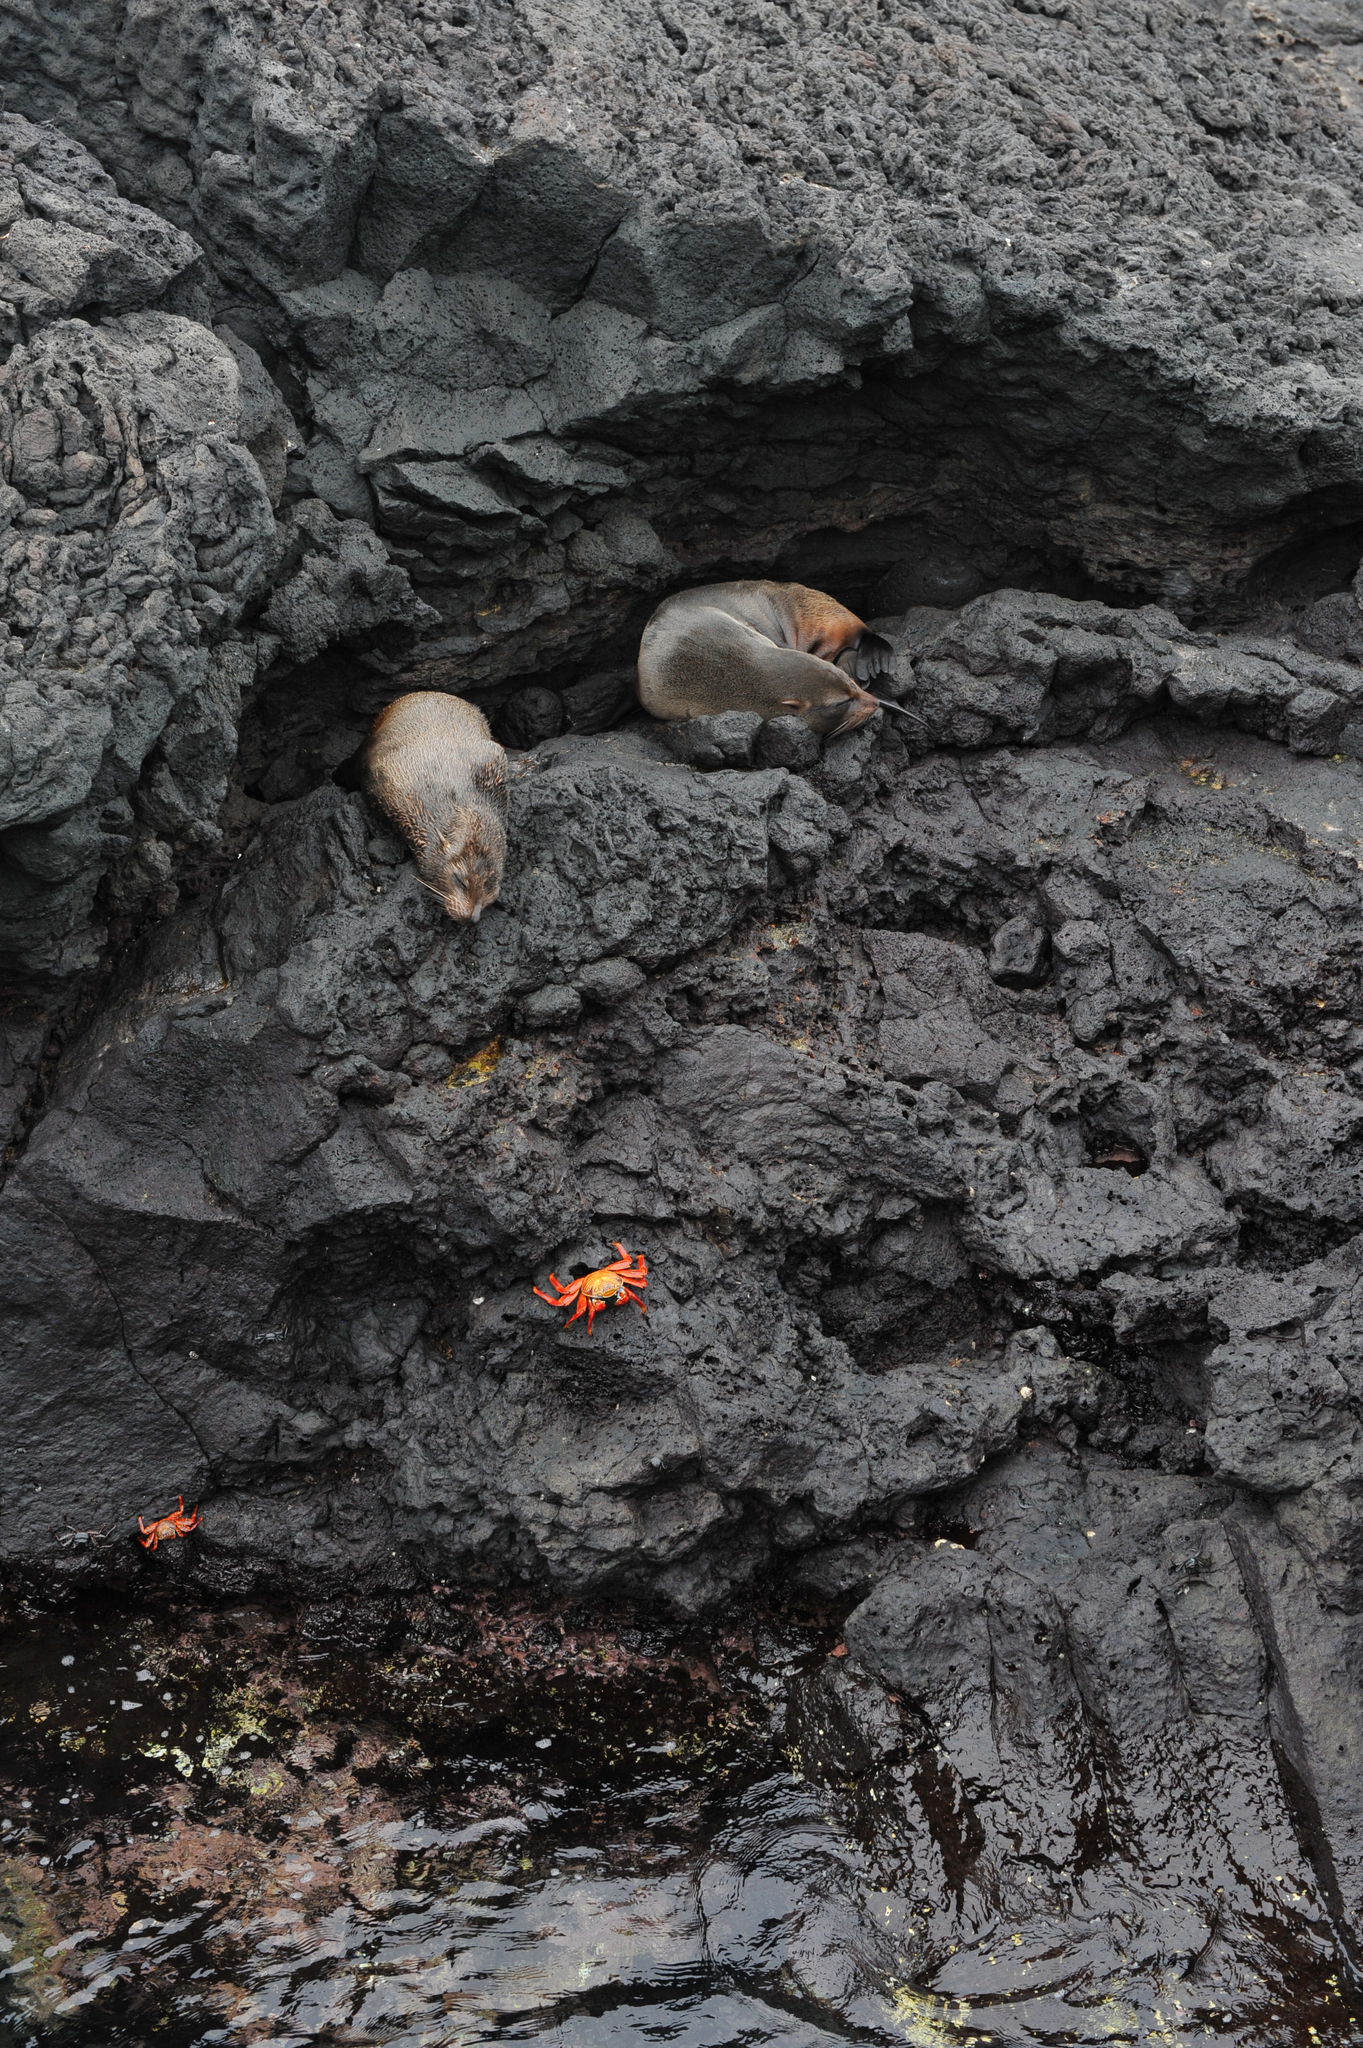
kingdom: Animalia
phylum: Chordata
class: Mammalia
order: Carnivora
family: Otariidae
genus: Arctocephalus
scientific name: Arctocephalus galapagoensis
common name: Galapagos fur seal
